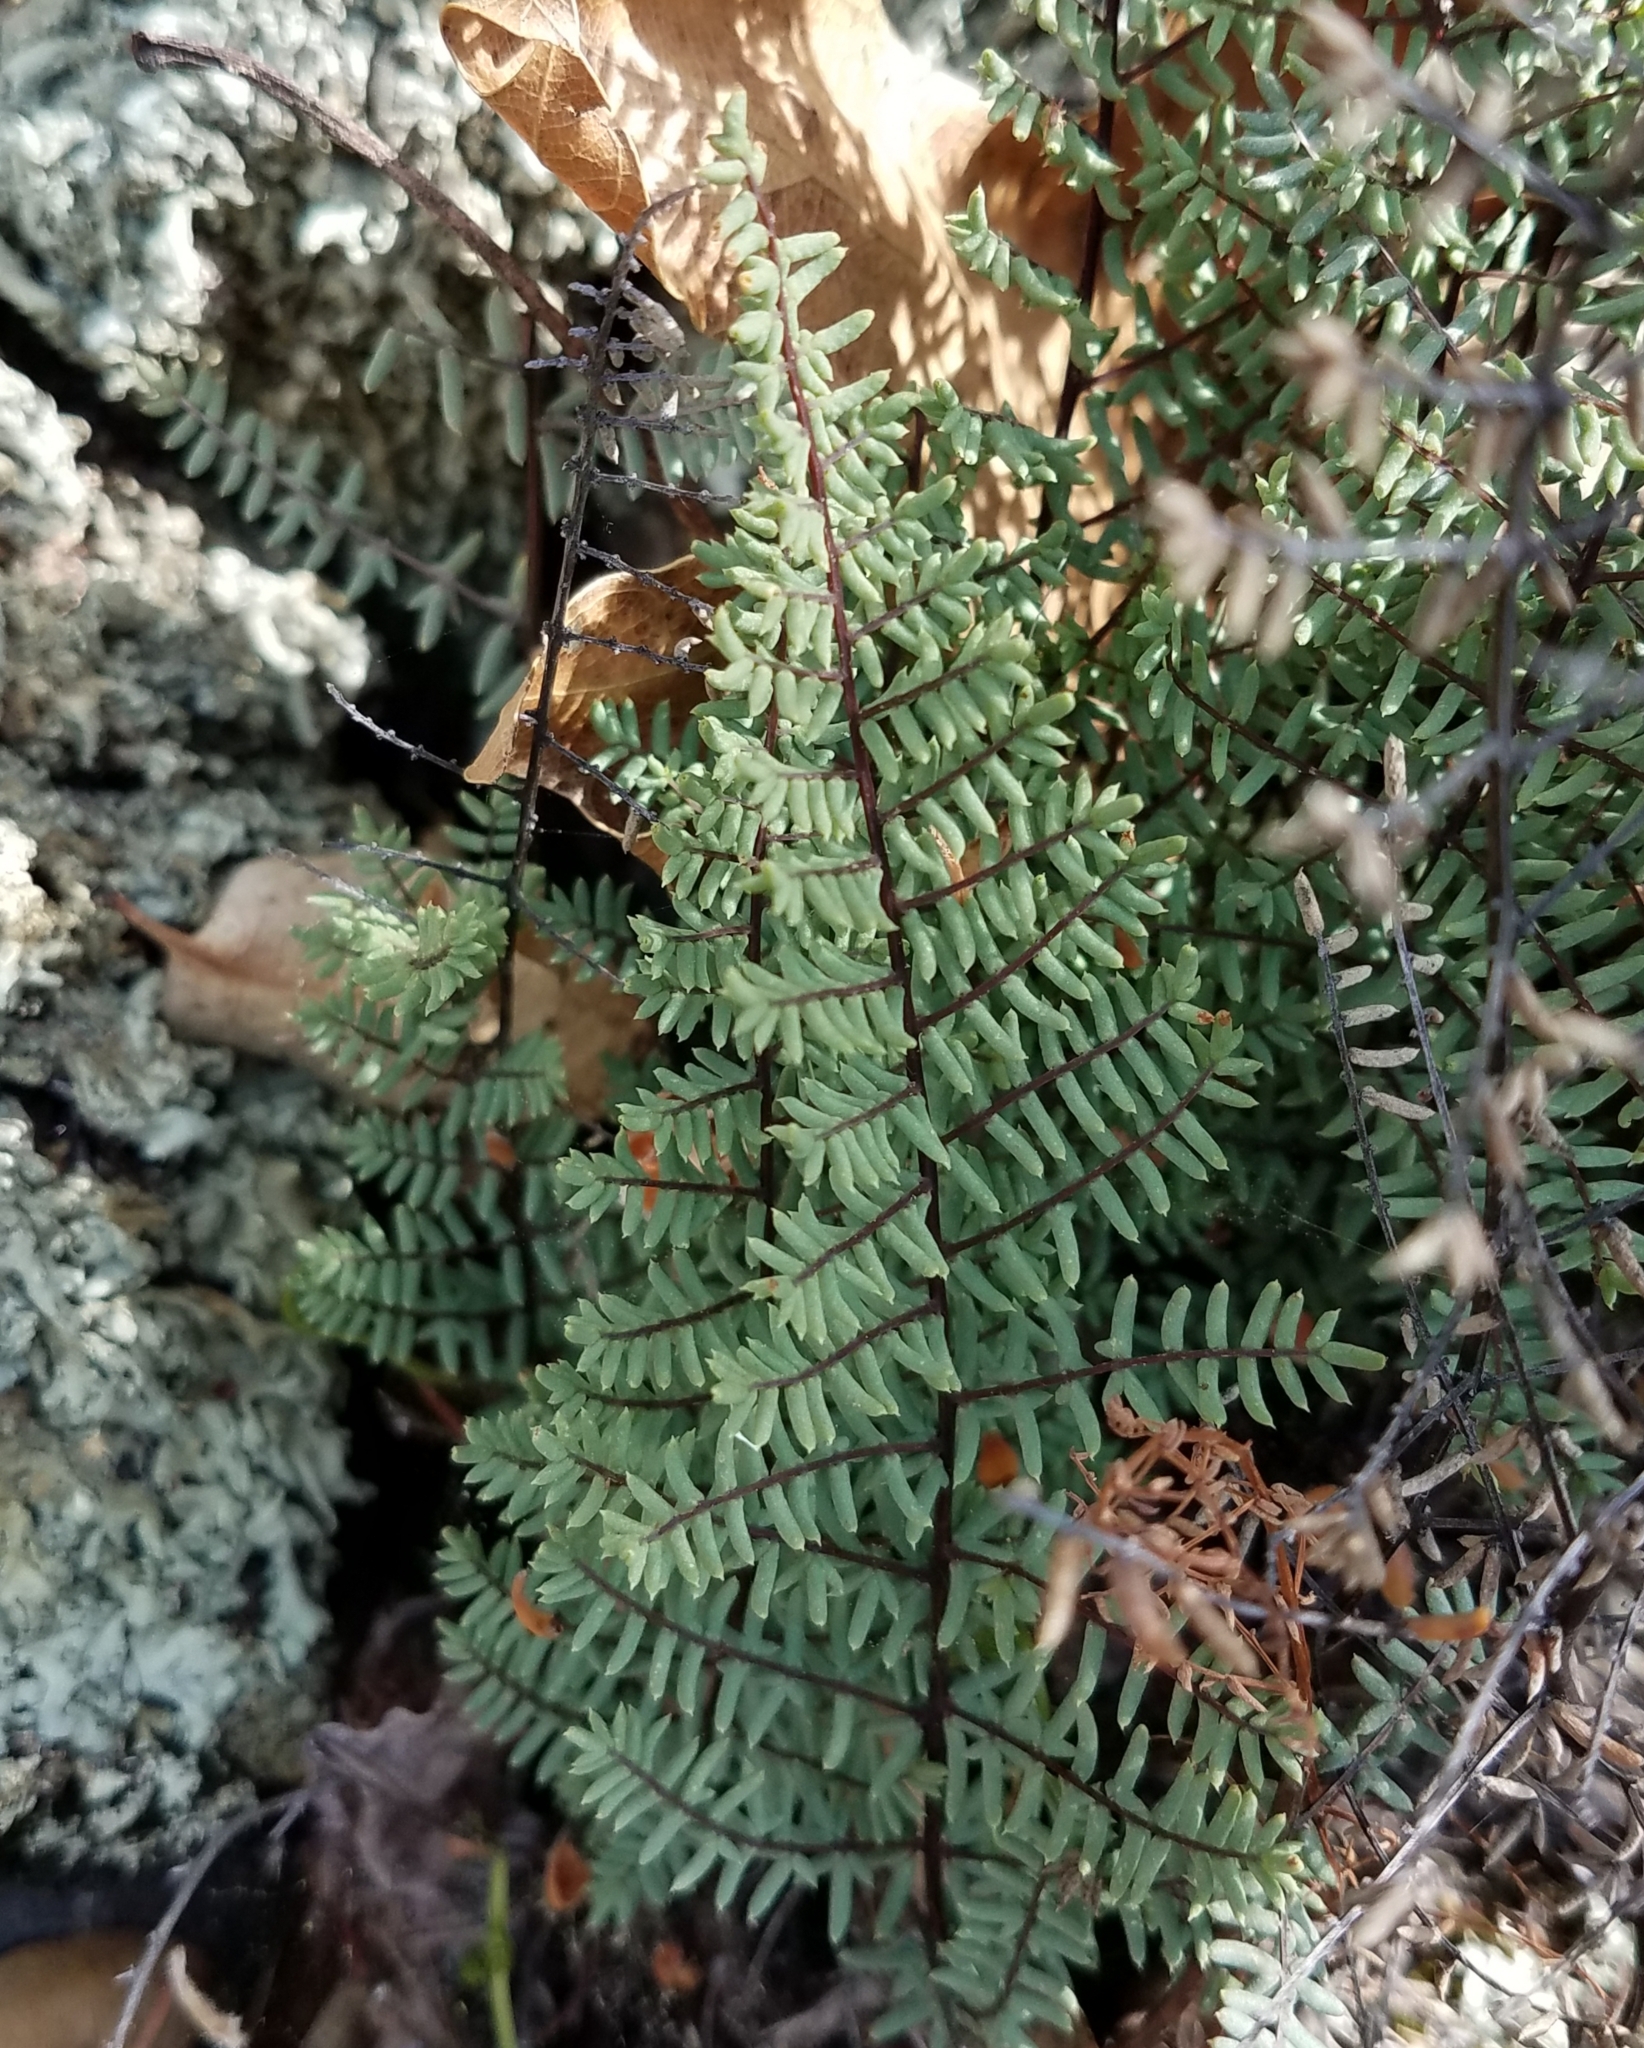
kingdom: Plantae
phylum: Tracheophyta
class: Polypodiopsida
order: Polypodiales
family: Pteridaceae
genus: Pellaea
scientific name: Pellaea mucronata
